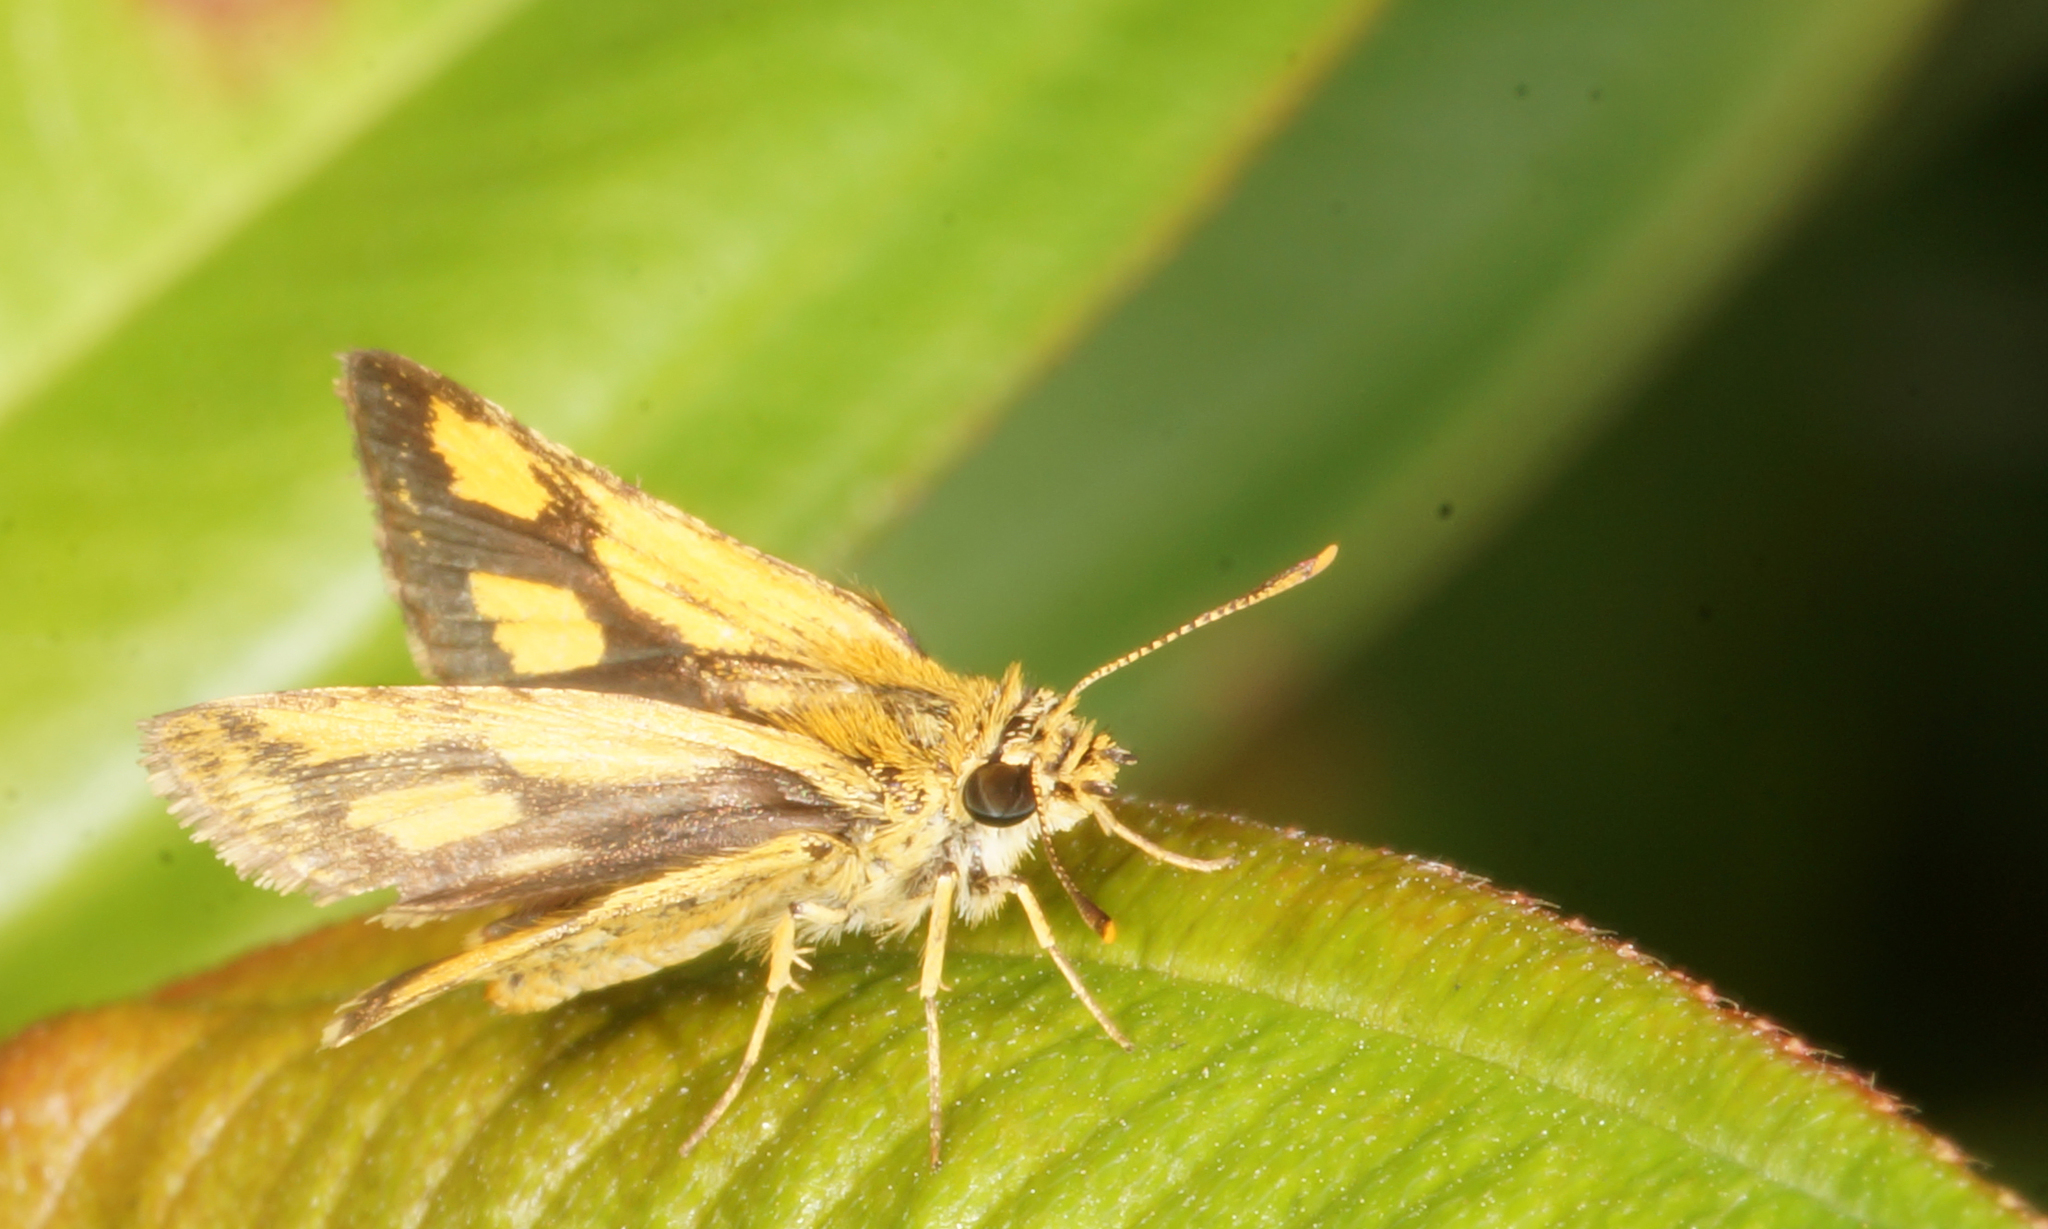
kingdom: Animalia
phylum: Arthropoda
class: Insecta
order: Lepidoptera
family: Hesperiidae
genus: Ampittia
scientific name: Ampittia dioscorides
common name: Common bush hopper
